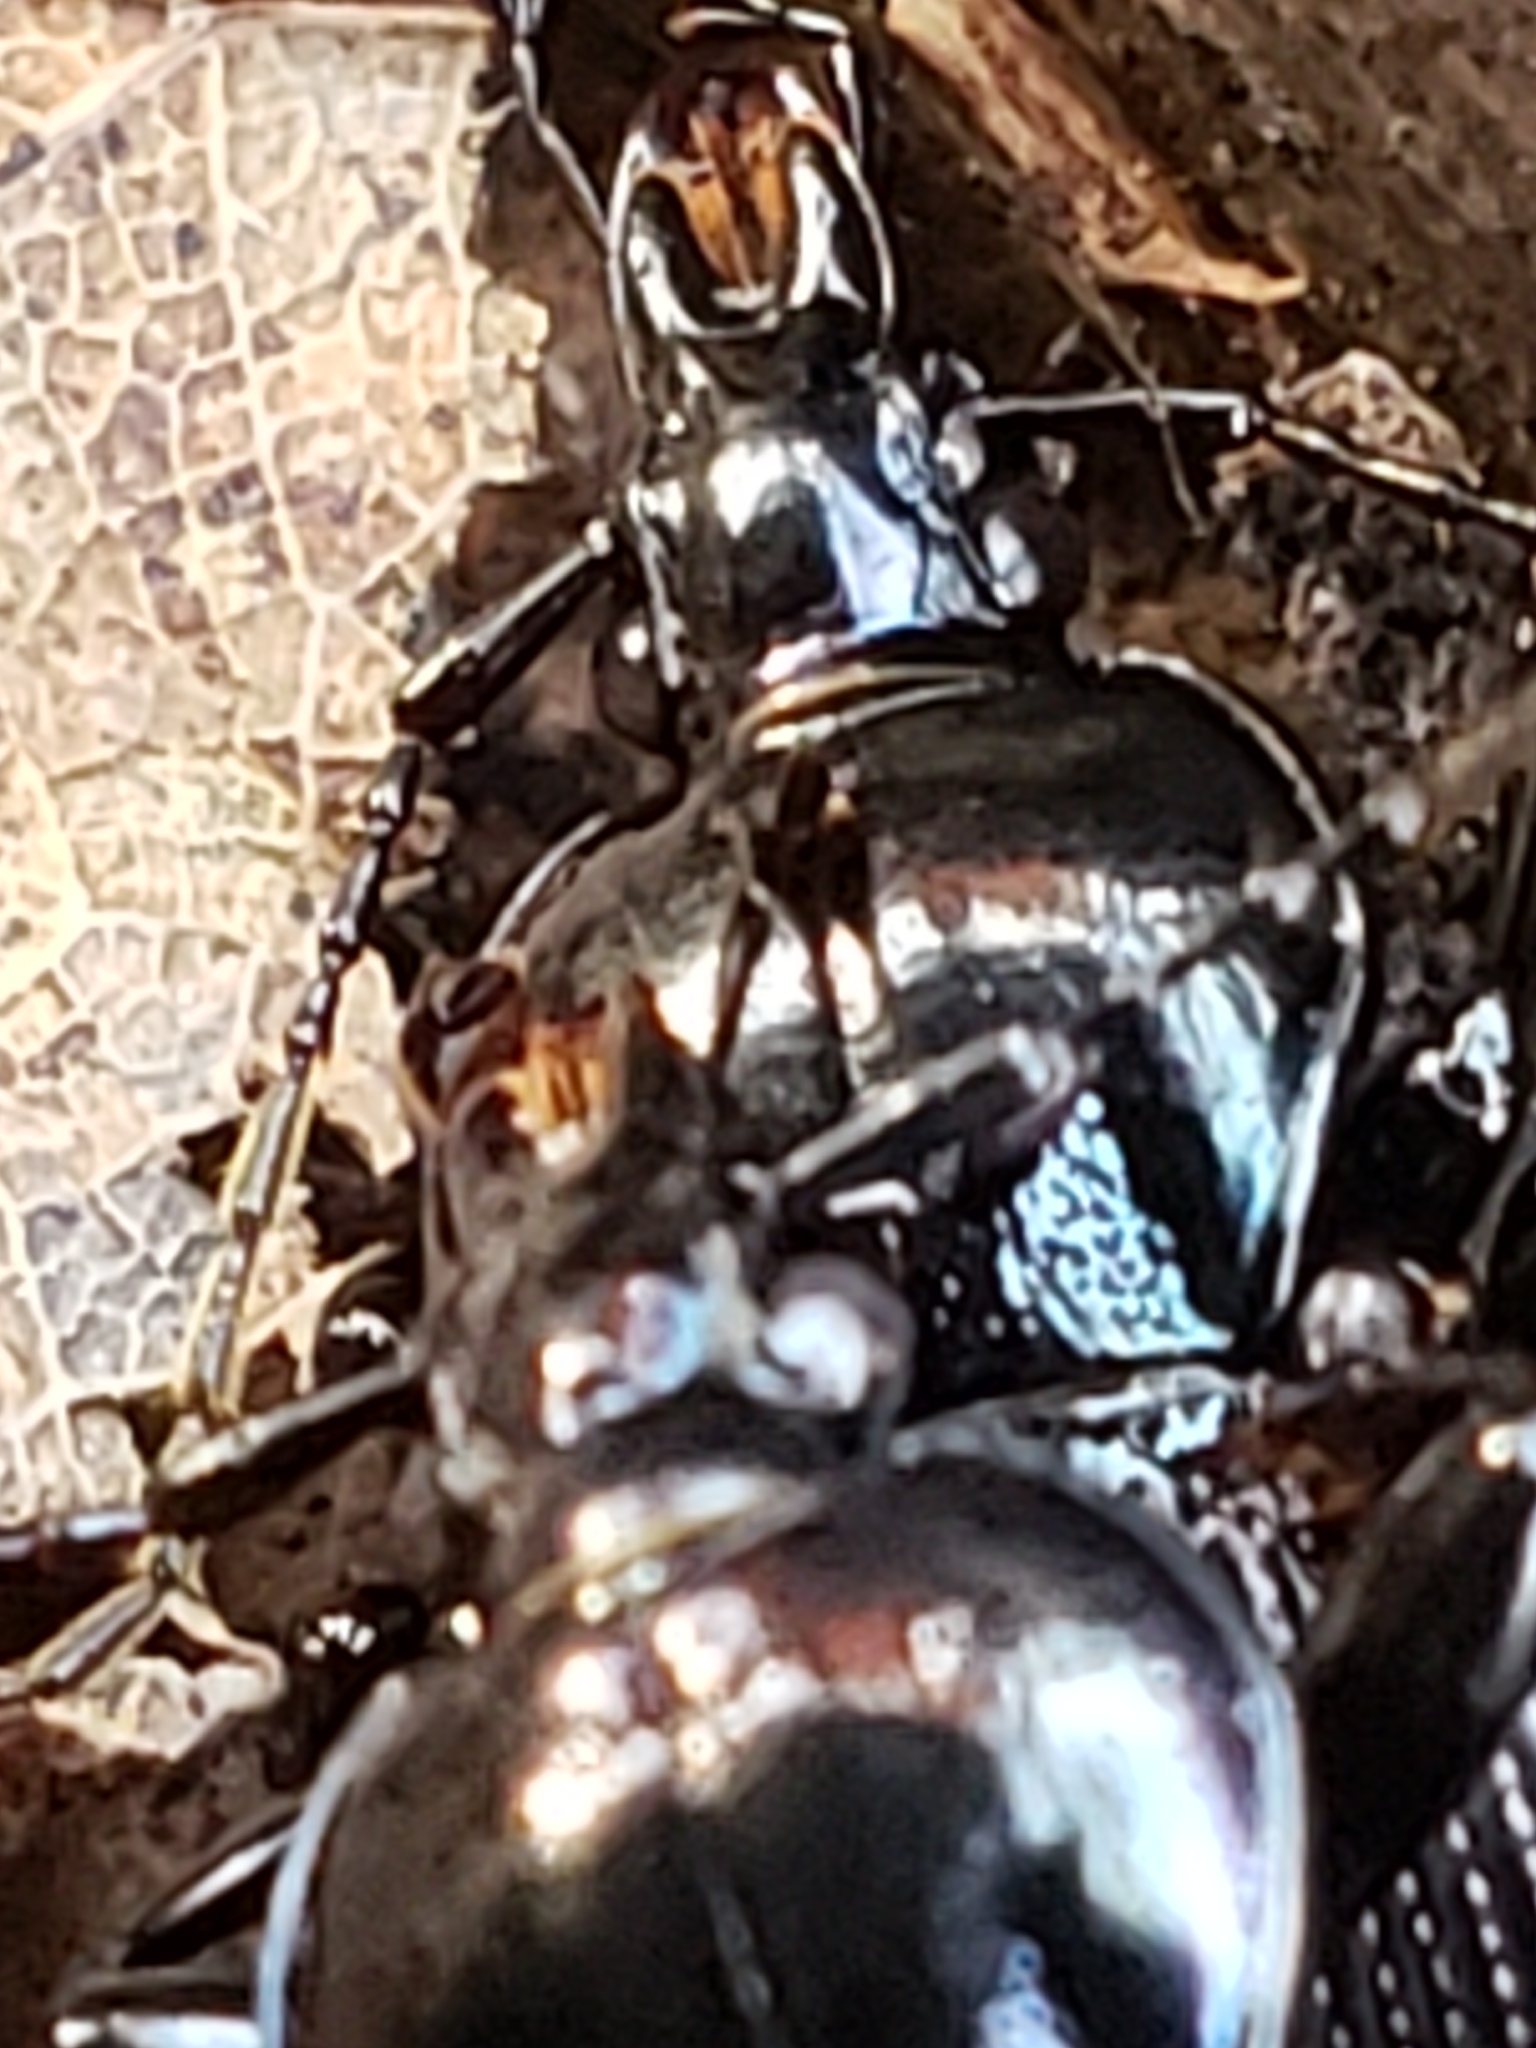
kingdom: Animalia
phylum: Arthropoda
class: Insecta
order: Coleoptera
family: Carabidae
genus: Sphaeroderus
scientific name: Sphaeroderus stenostomus
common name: Small snail-eating ground beetle
